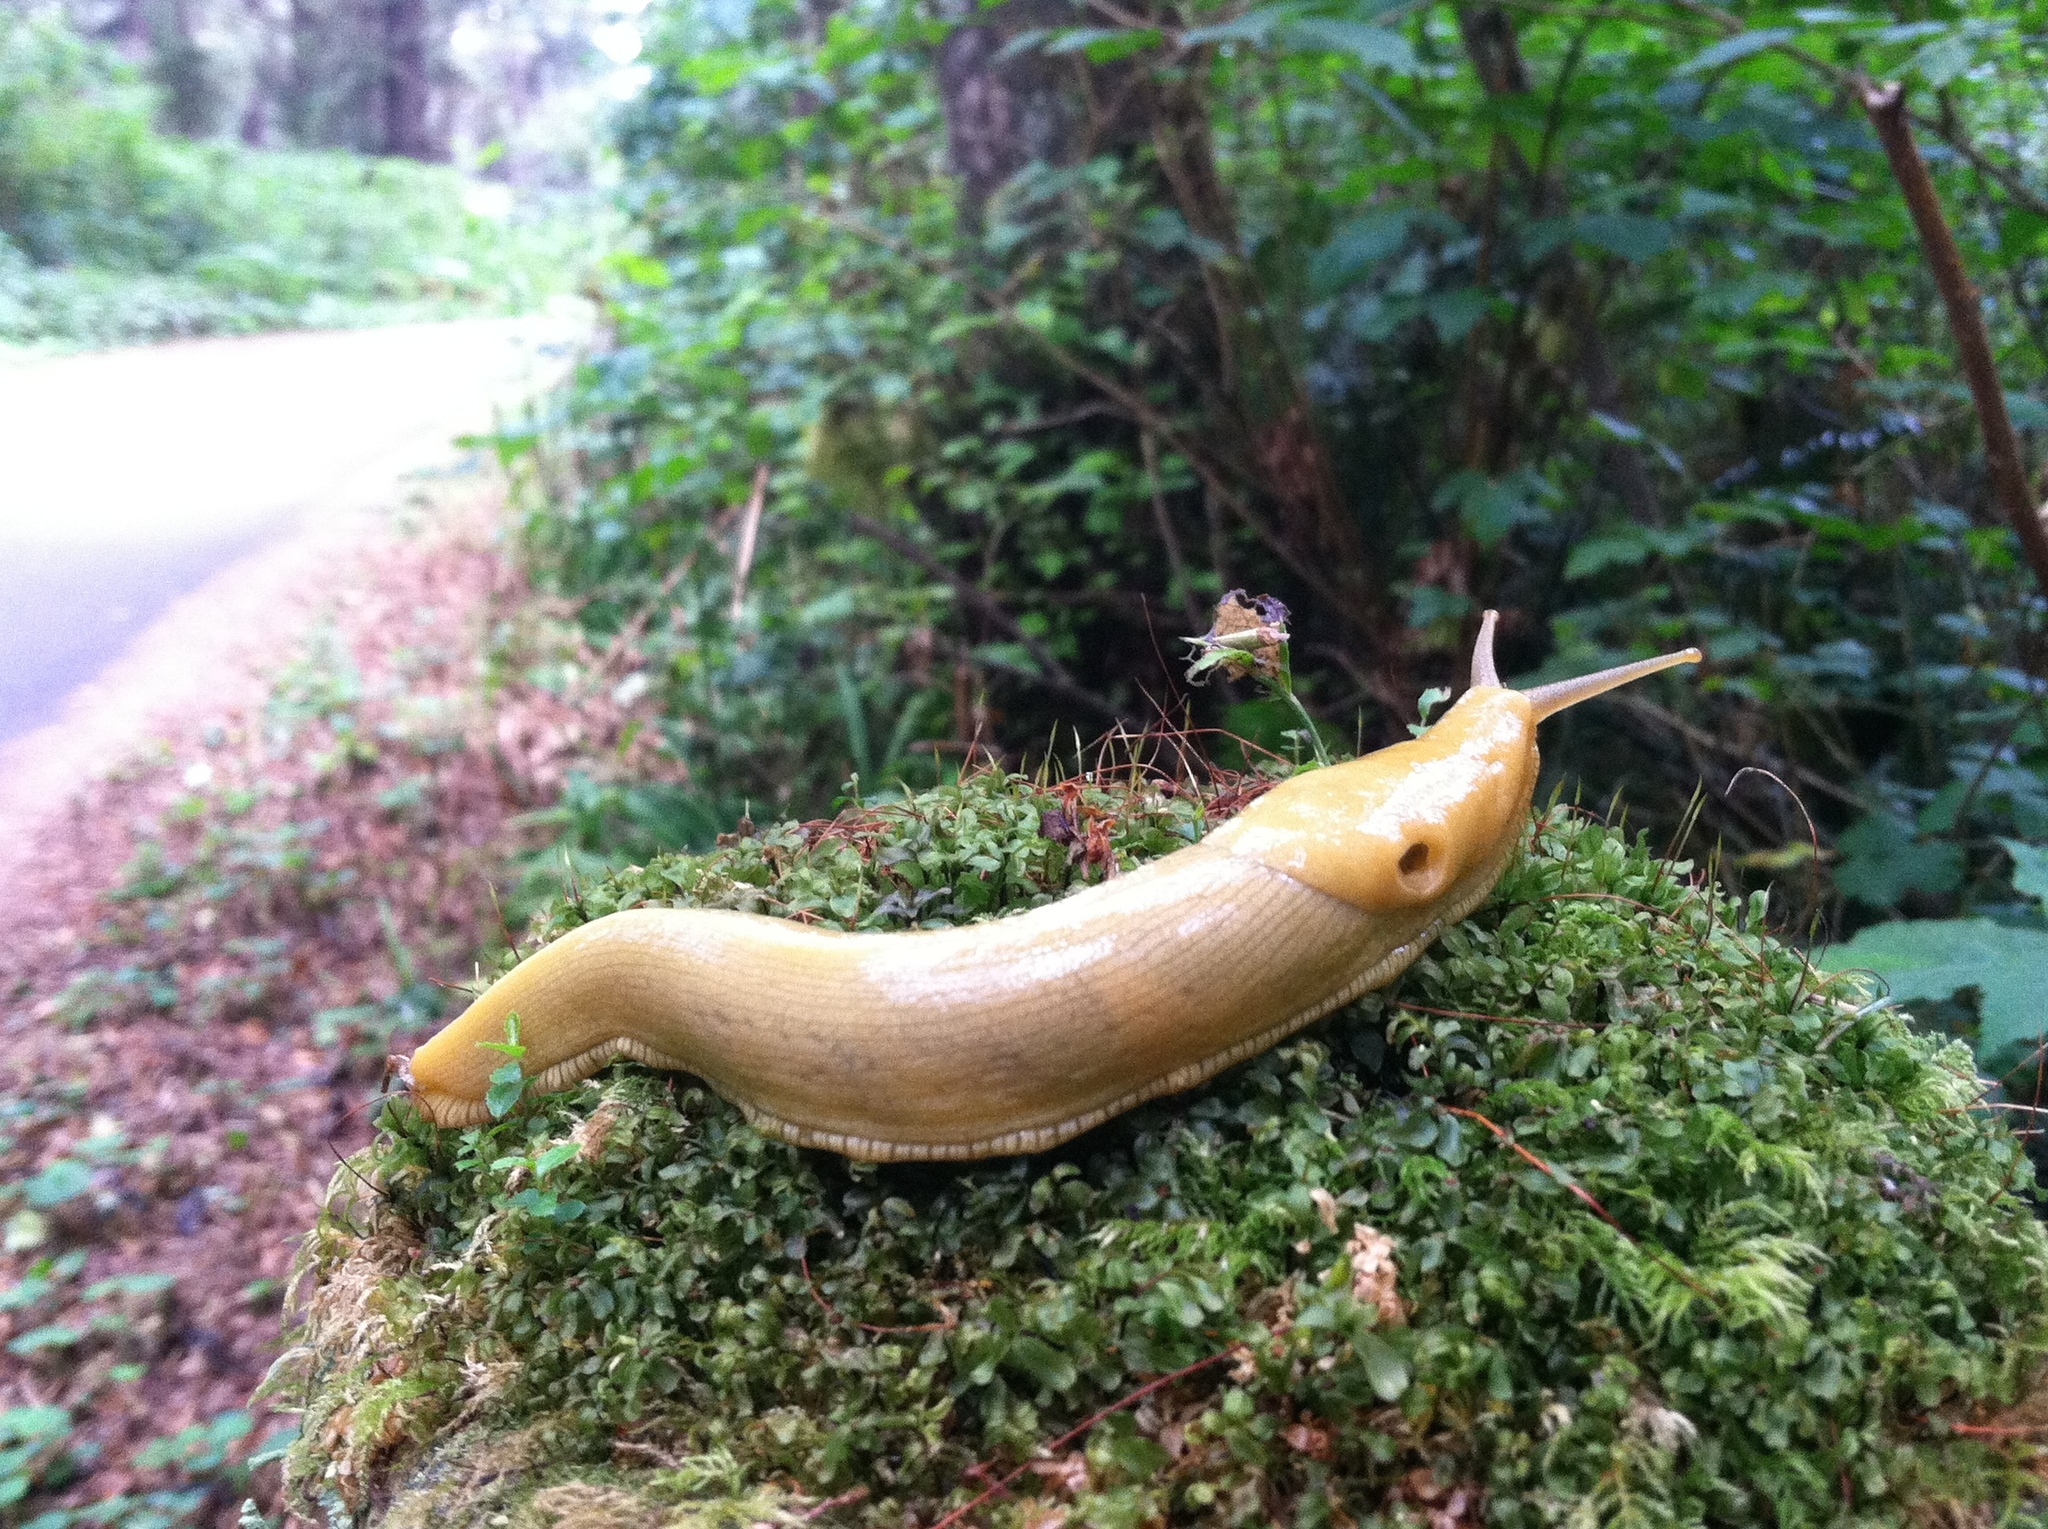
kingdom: Animalia
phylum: Mollusca
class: Gastropoda
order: Stylommatophora
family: Ariolimacidae
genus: Ariolimax
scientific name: Ariolimax columbianus
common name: Pacific banana slug
